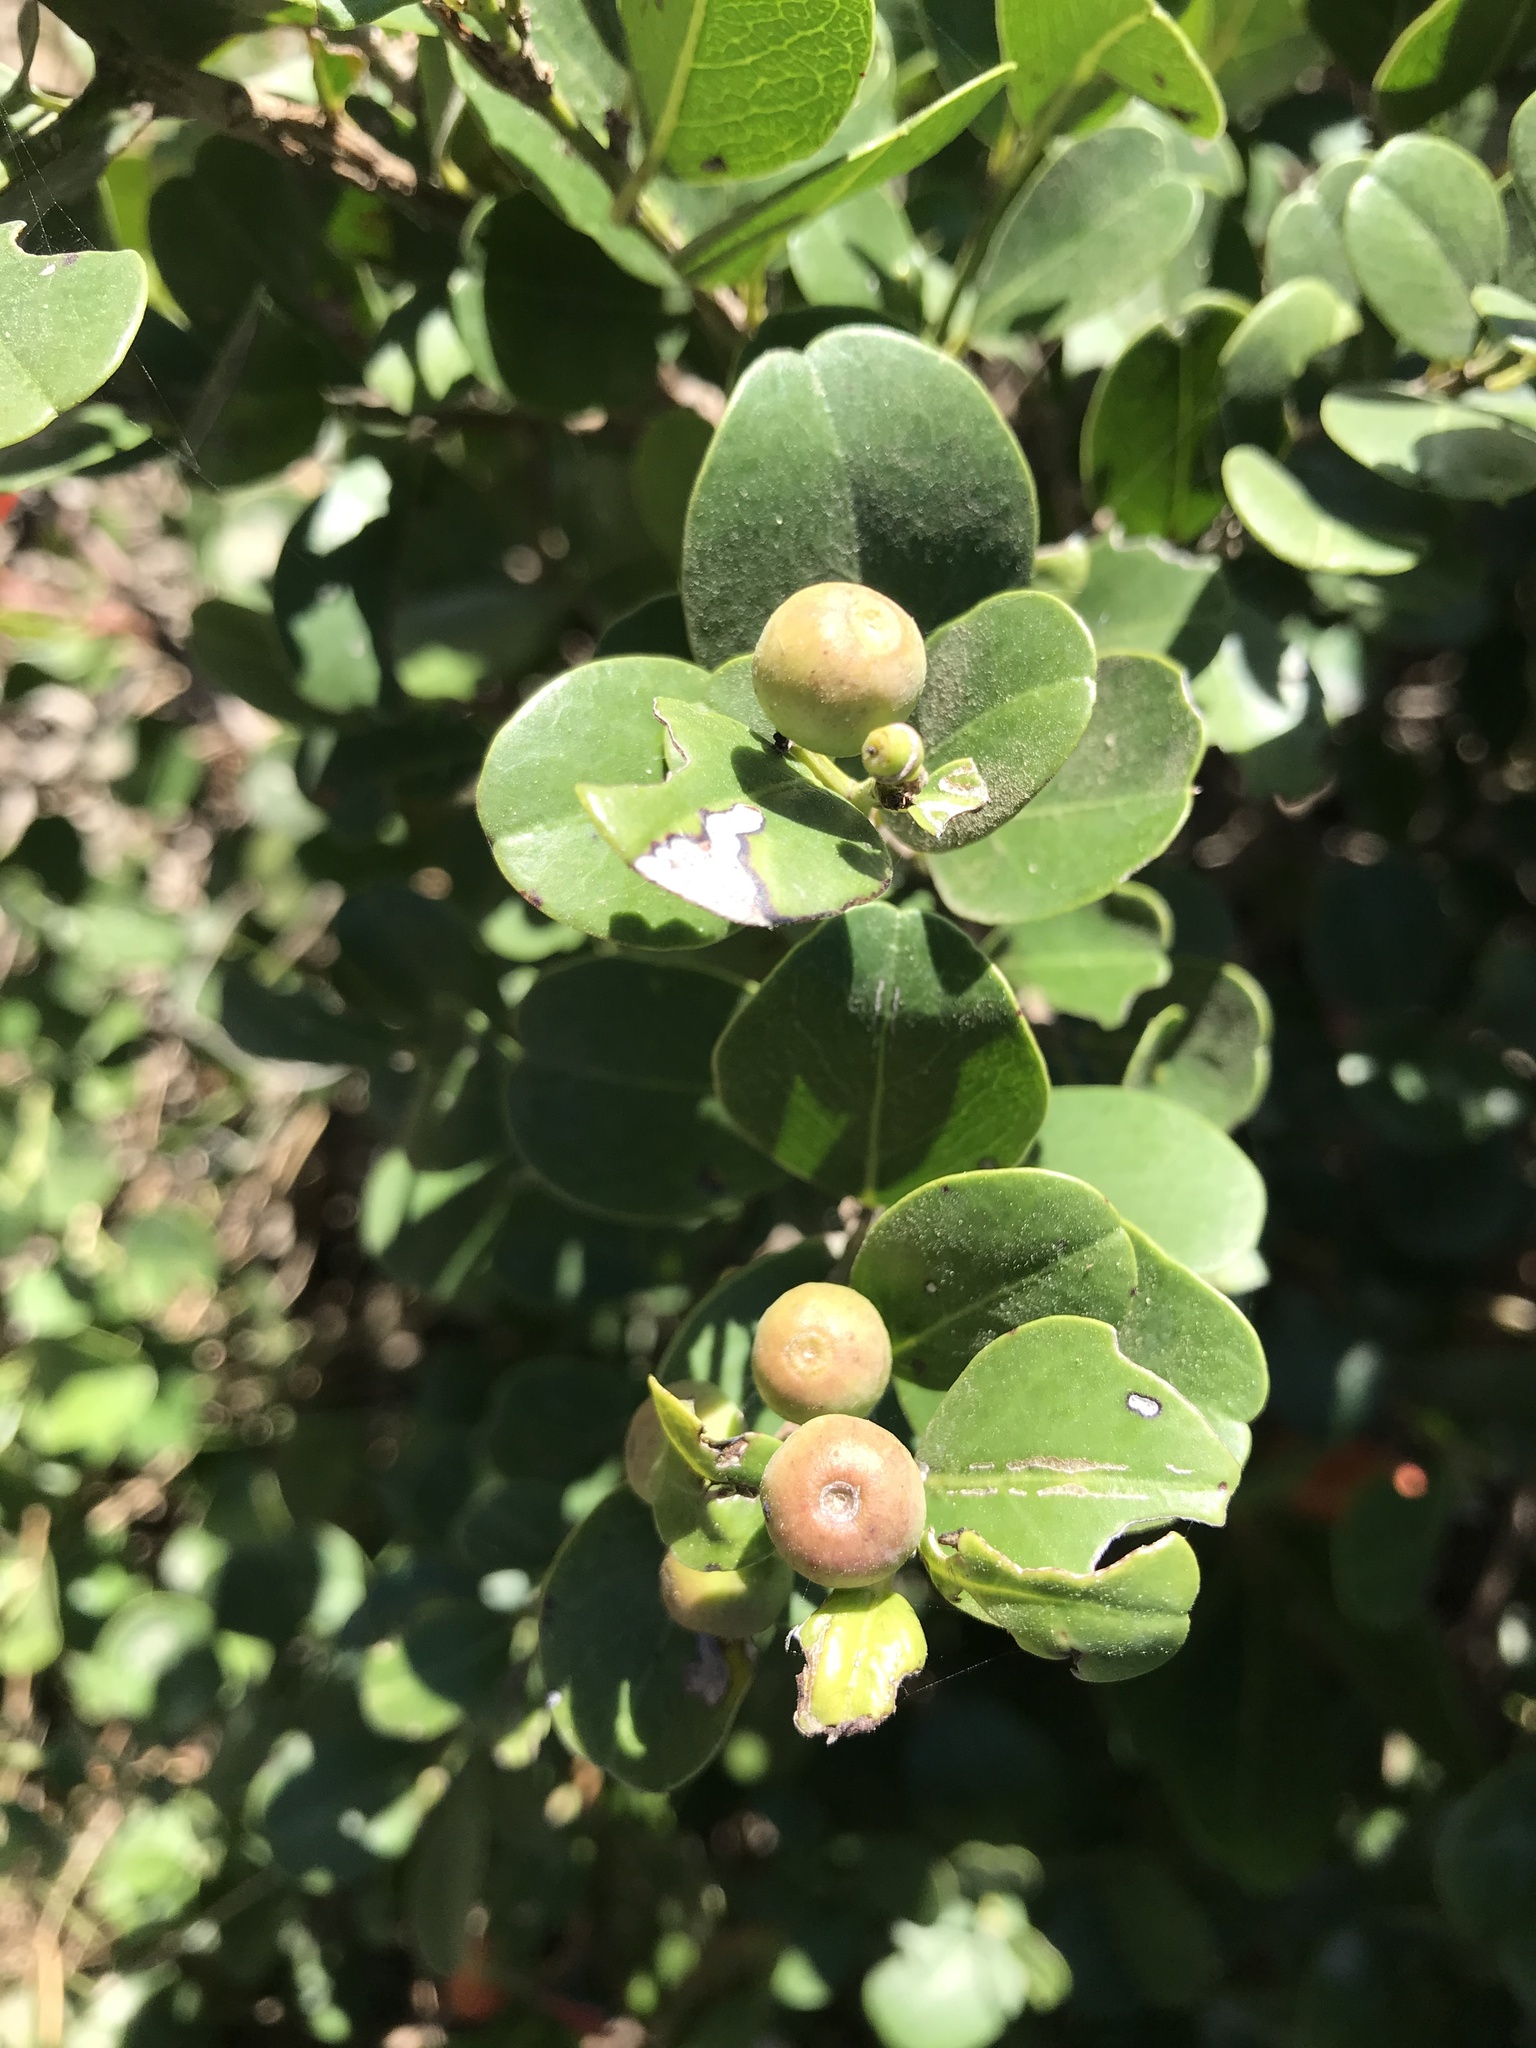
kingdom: Plantae
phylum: Tracheophyta
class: Magnoliopsida
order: Rosales
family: Rhamnaceae
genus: Scutia
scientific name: Scutia myrtina
